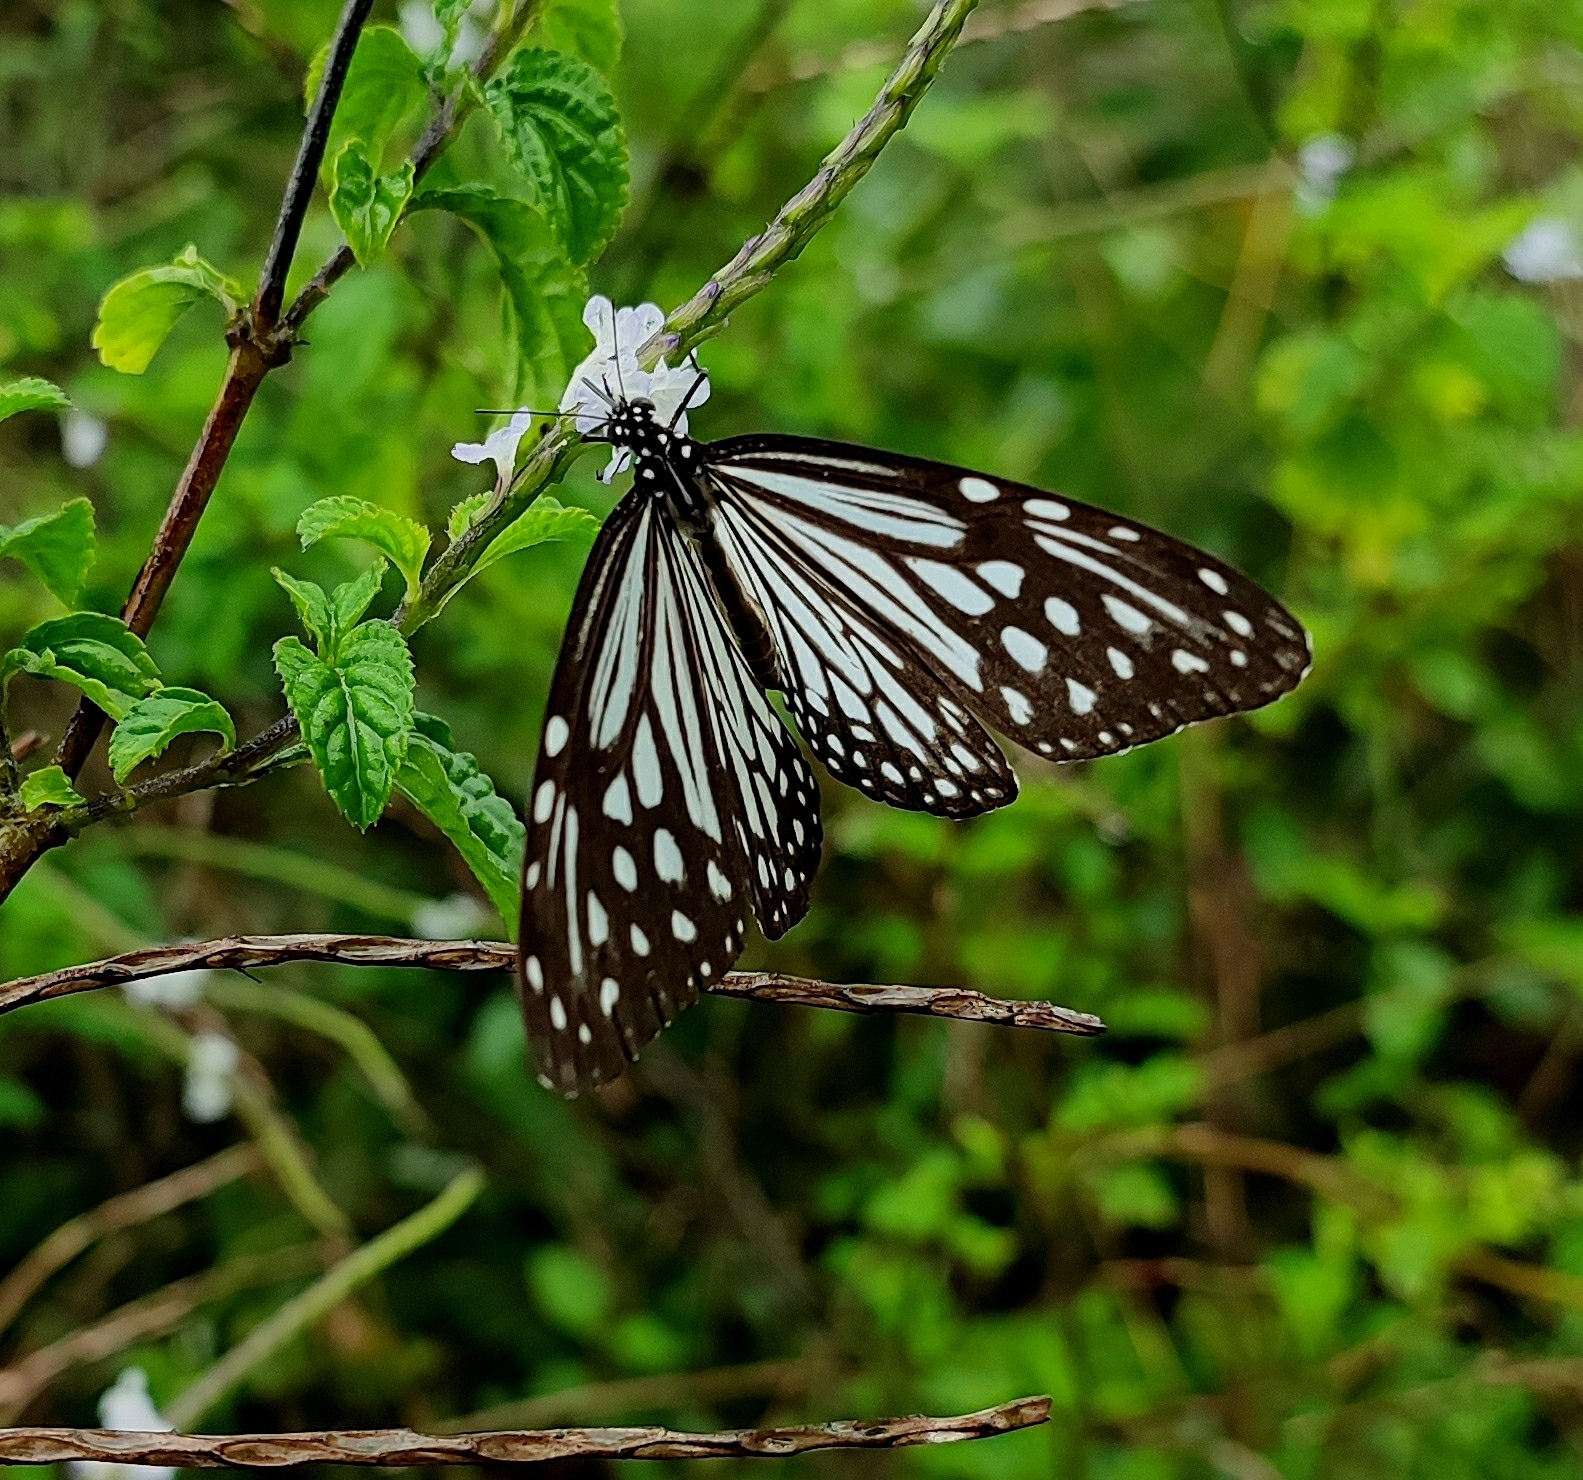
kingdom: Animalia
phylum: Arthropoda
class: Insecta
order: Lepidoptera
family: Nymphalidae
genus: Parantica
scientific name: Parantica aglea
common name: Glassy tiger
